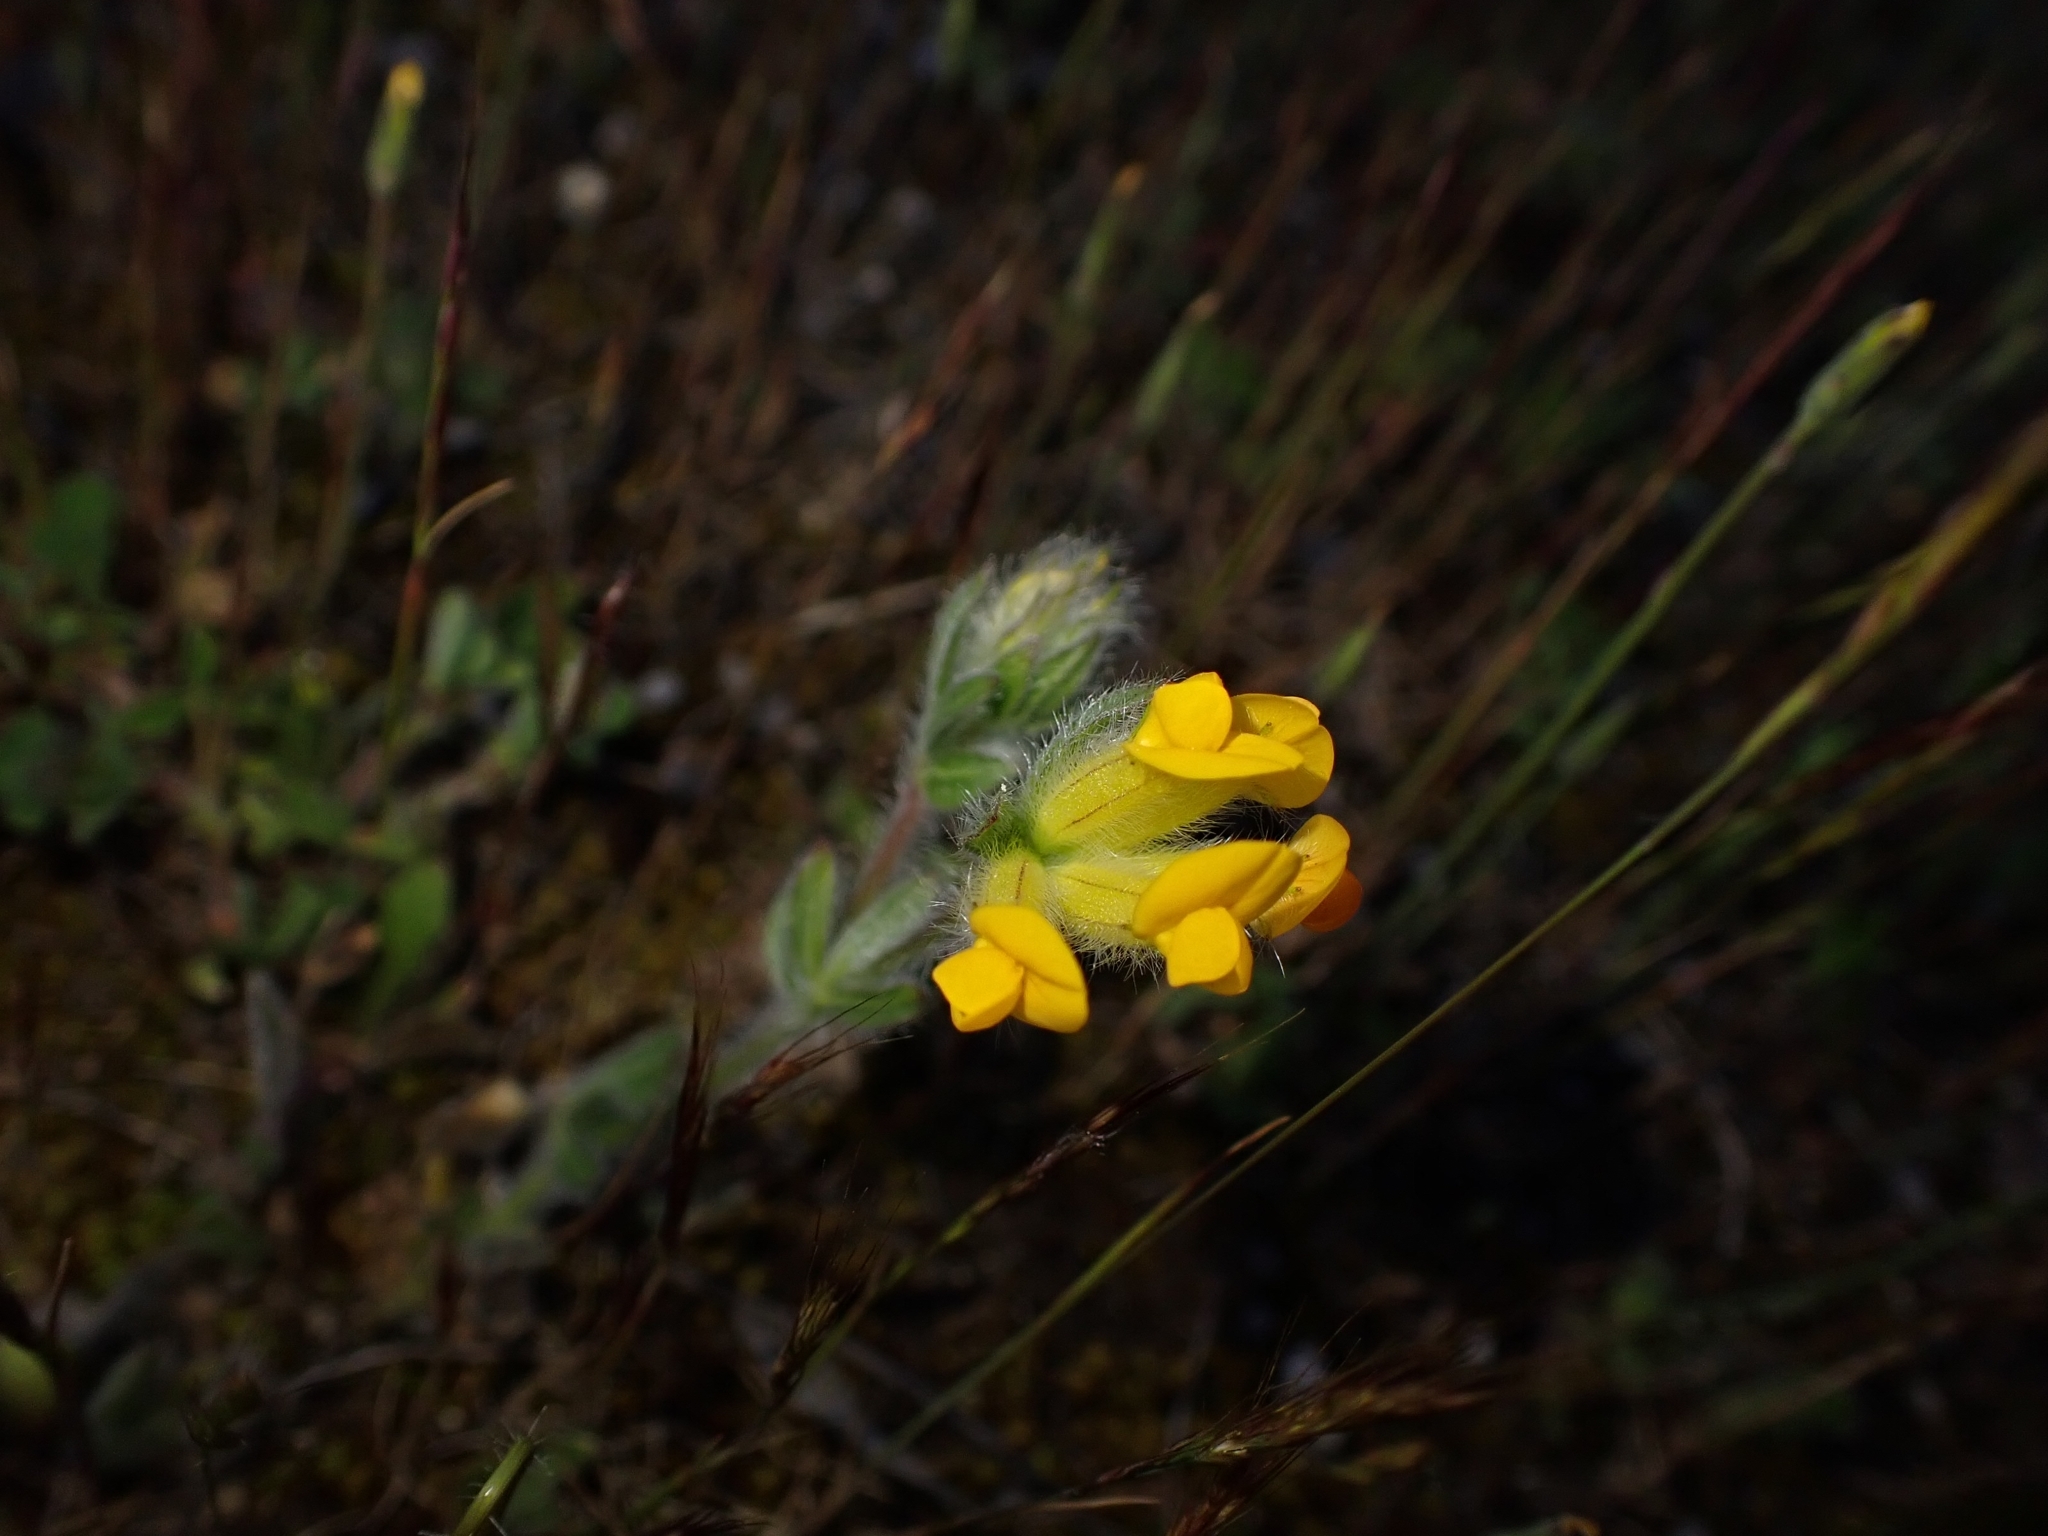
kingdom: Plantae
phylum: Tracheophyta
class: Magnoliopsida
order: Fabales
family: Fabaceae
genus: Anthyllis
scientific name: Anthyllis lotoides
